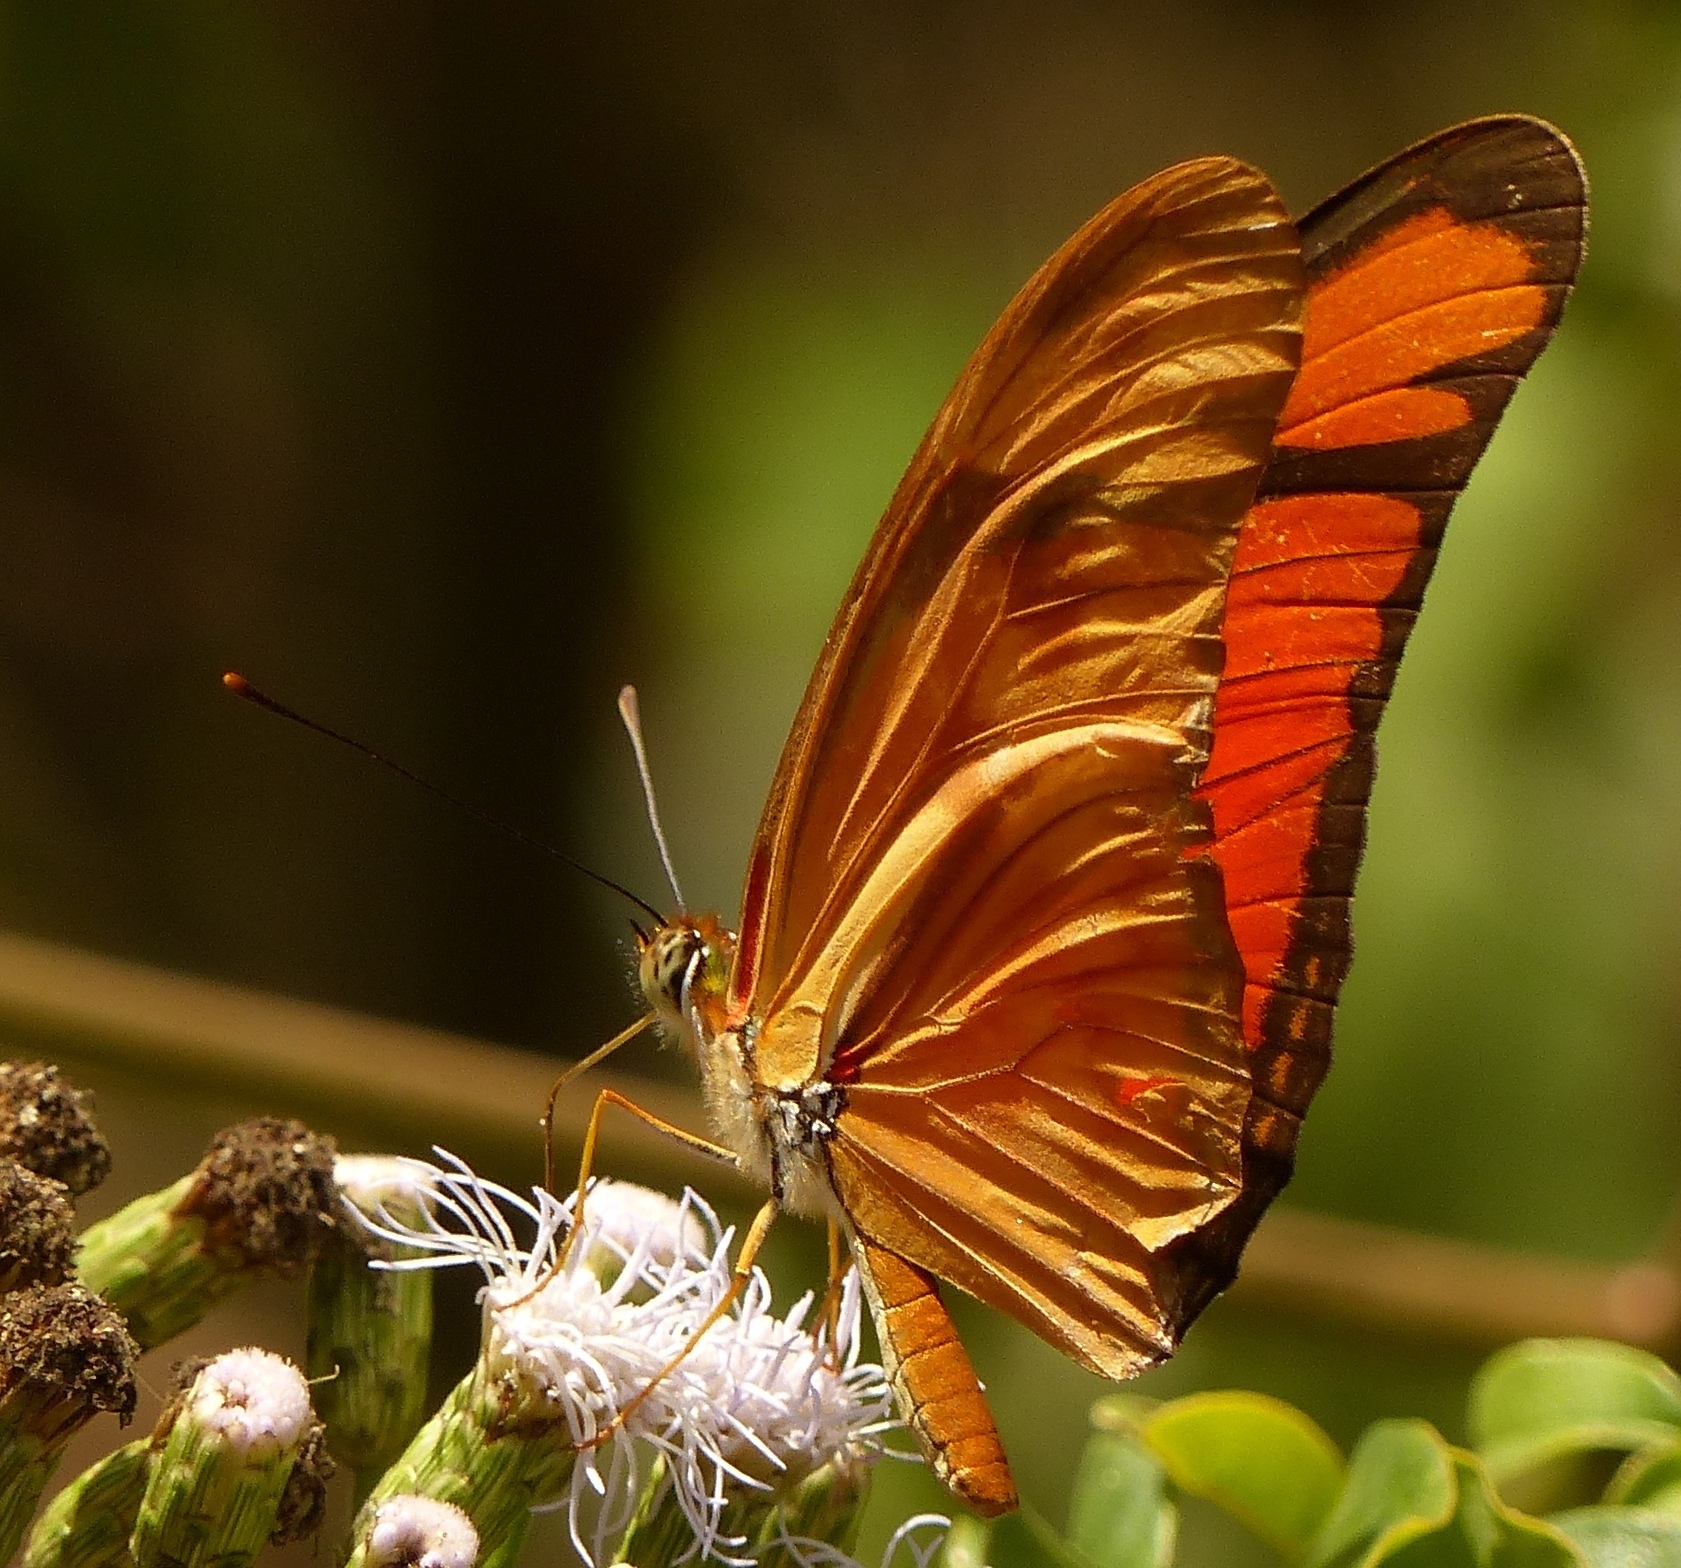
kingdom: Animalia
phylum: Arthropoda
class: Insecta
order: Lepidoptera
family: Nymphalidae
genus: Dryas
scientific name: Dryas iulia
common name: Flambeau
